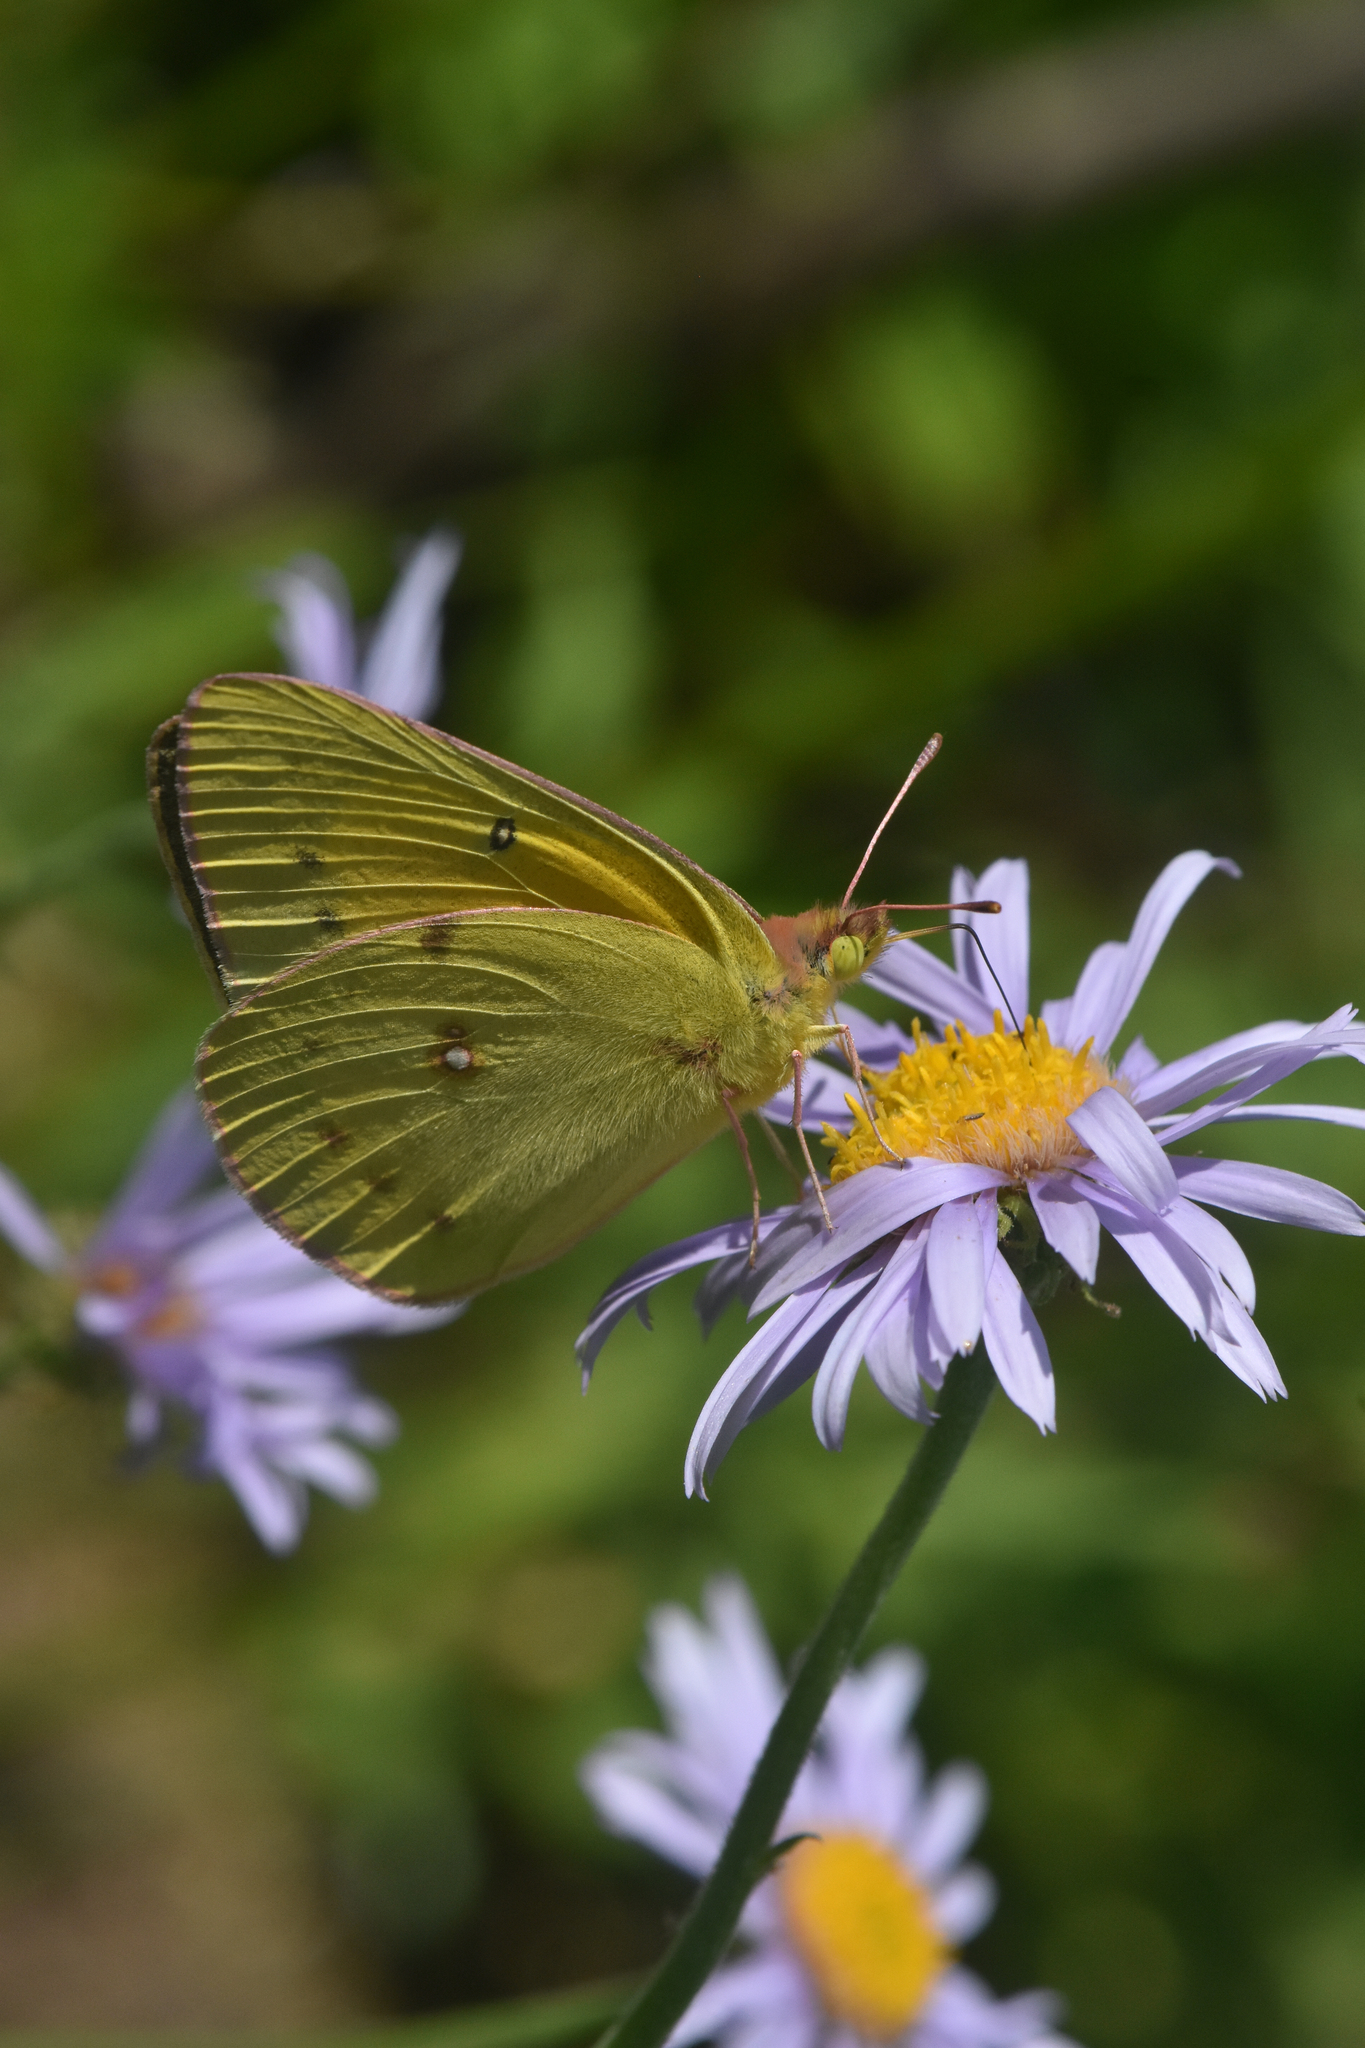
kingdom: Animalia
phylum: Arthropoda
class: Insecta
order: Lepidoptera
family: Pieridae
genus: Colias
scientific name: Colias eurytheme
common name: Alfalfa butterfly
